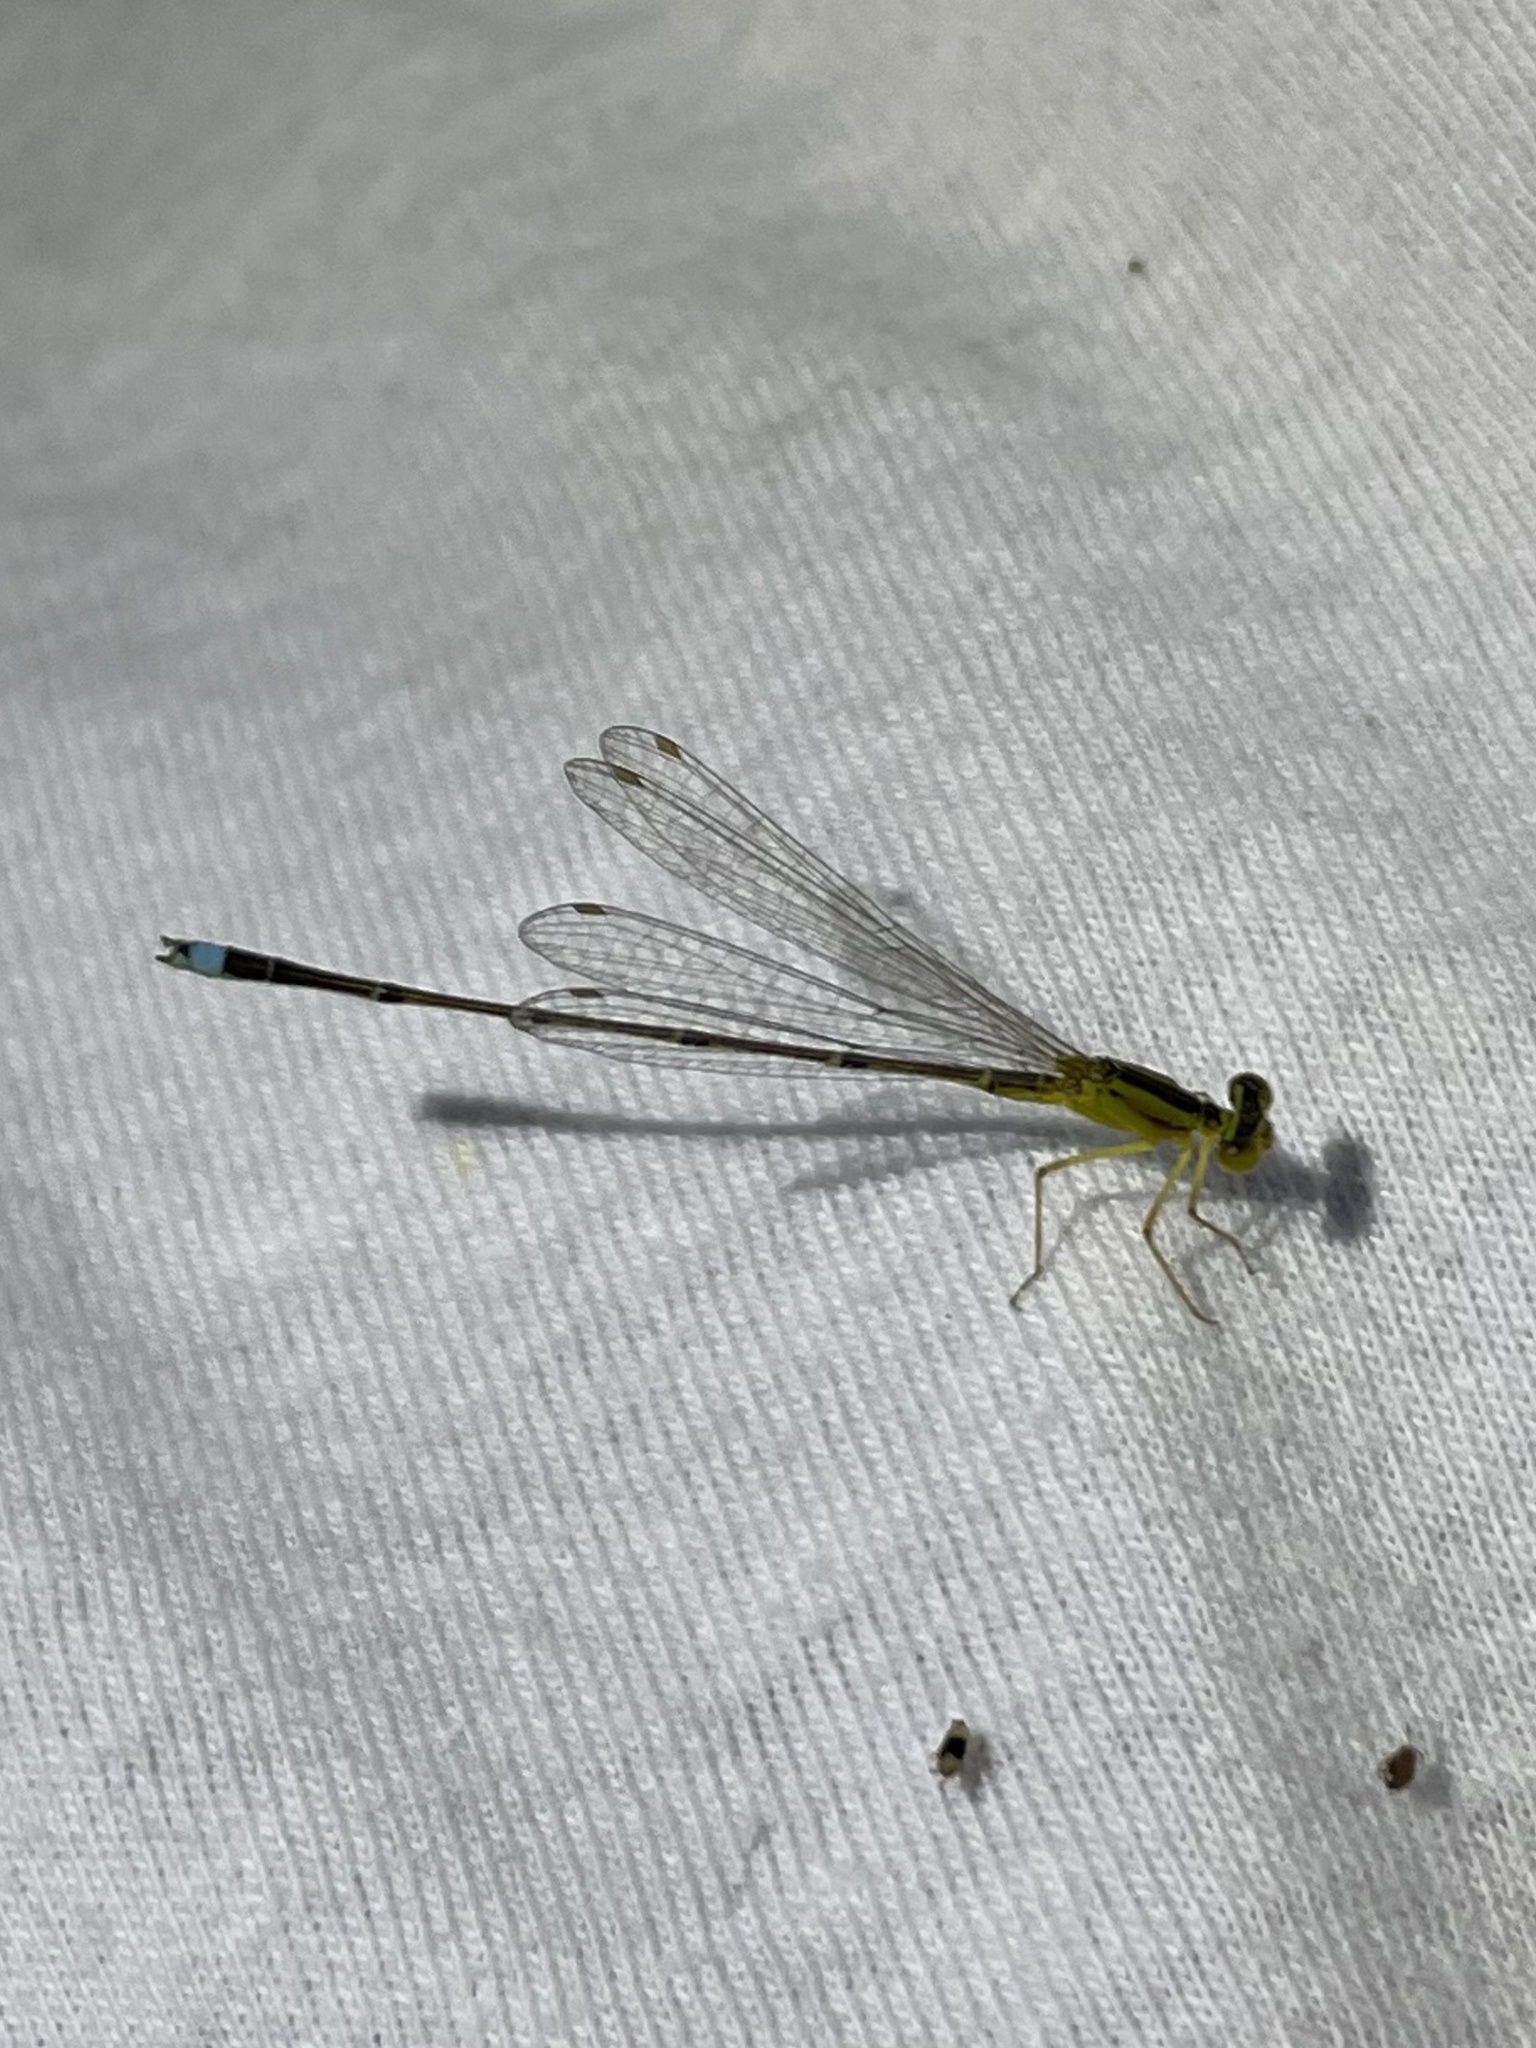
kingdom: Animalia
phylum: Arthropoda
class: Insecta
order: Odonata
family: Coenagrionidae
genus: Enallagma
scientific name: Enallagma vesperum
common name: Vesper bluet
